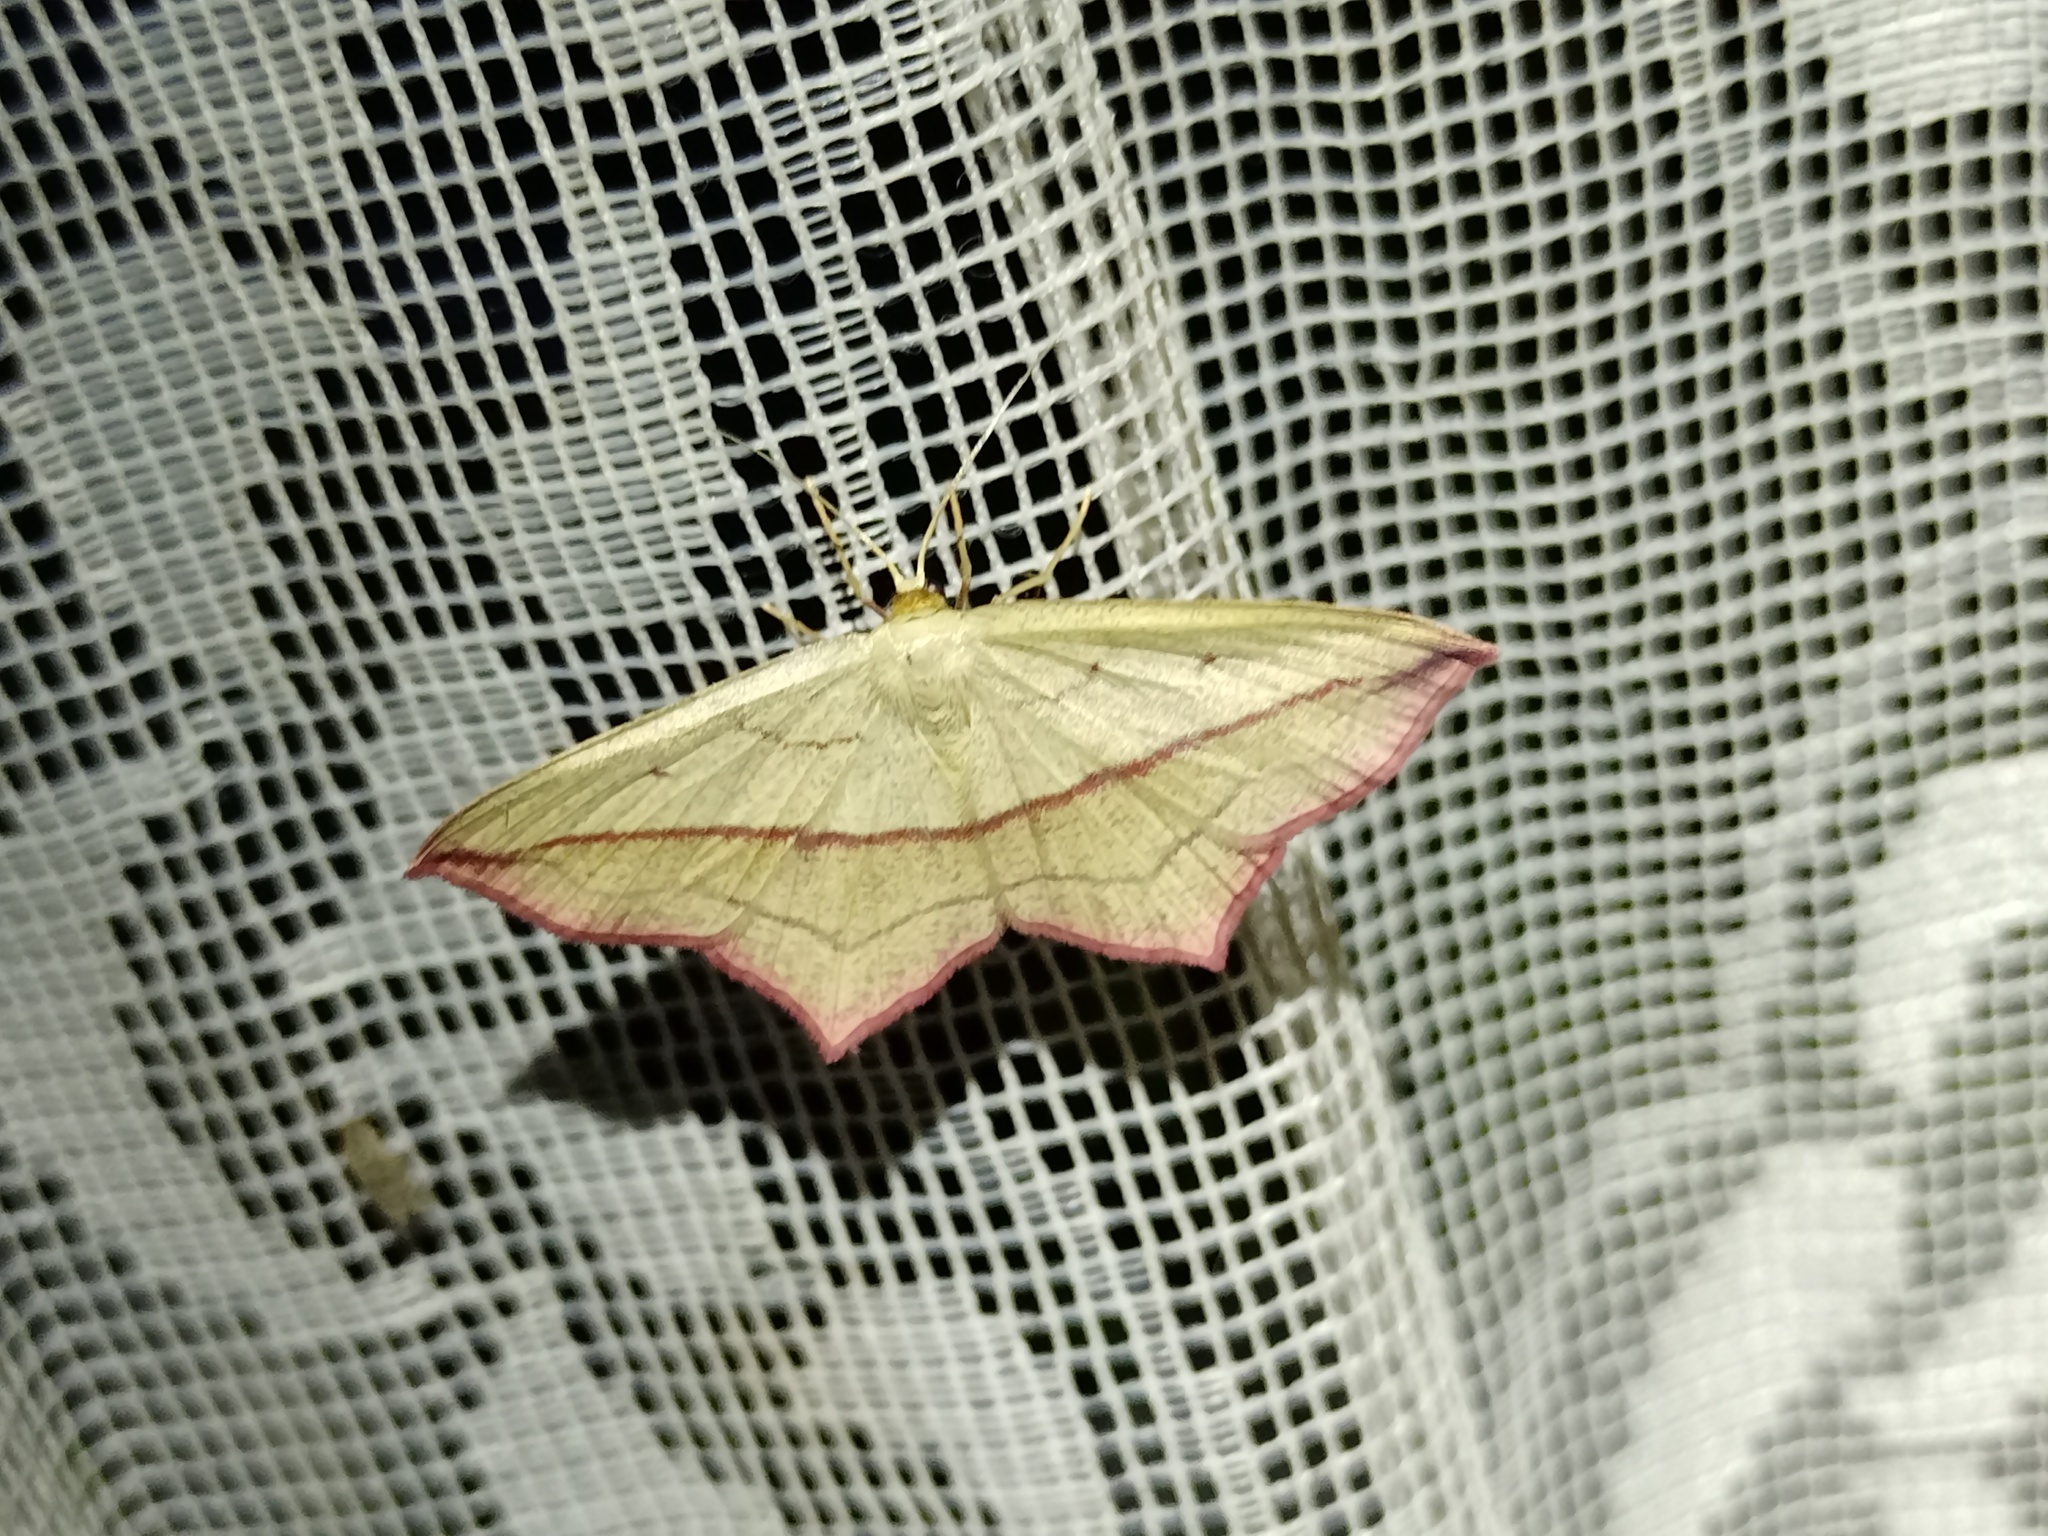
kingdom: Animalia
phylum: Arthropoda
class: Insecta
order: Lepidoptera
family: Geometridae
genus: Timandra
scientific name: Timandra comae
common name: Blood-vein
